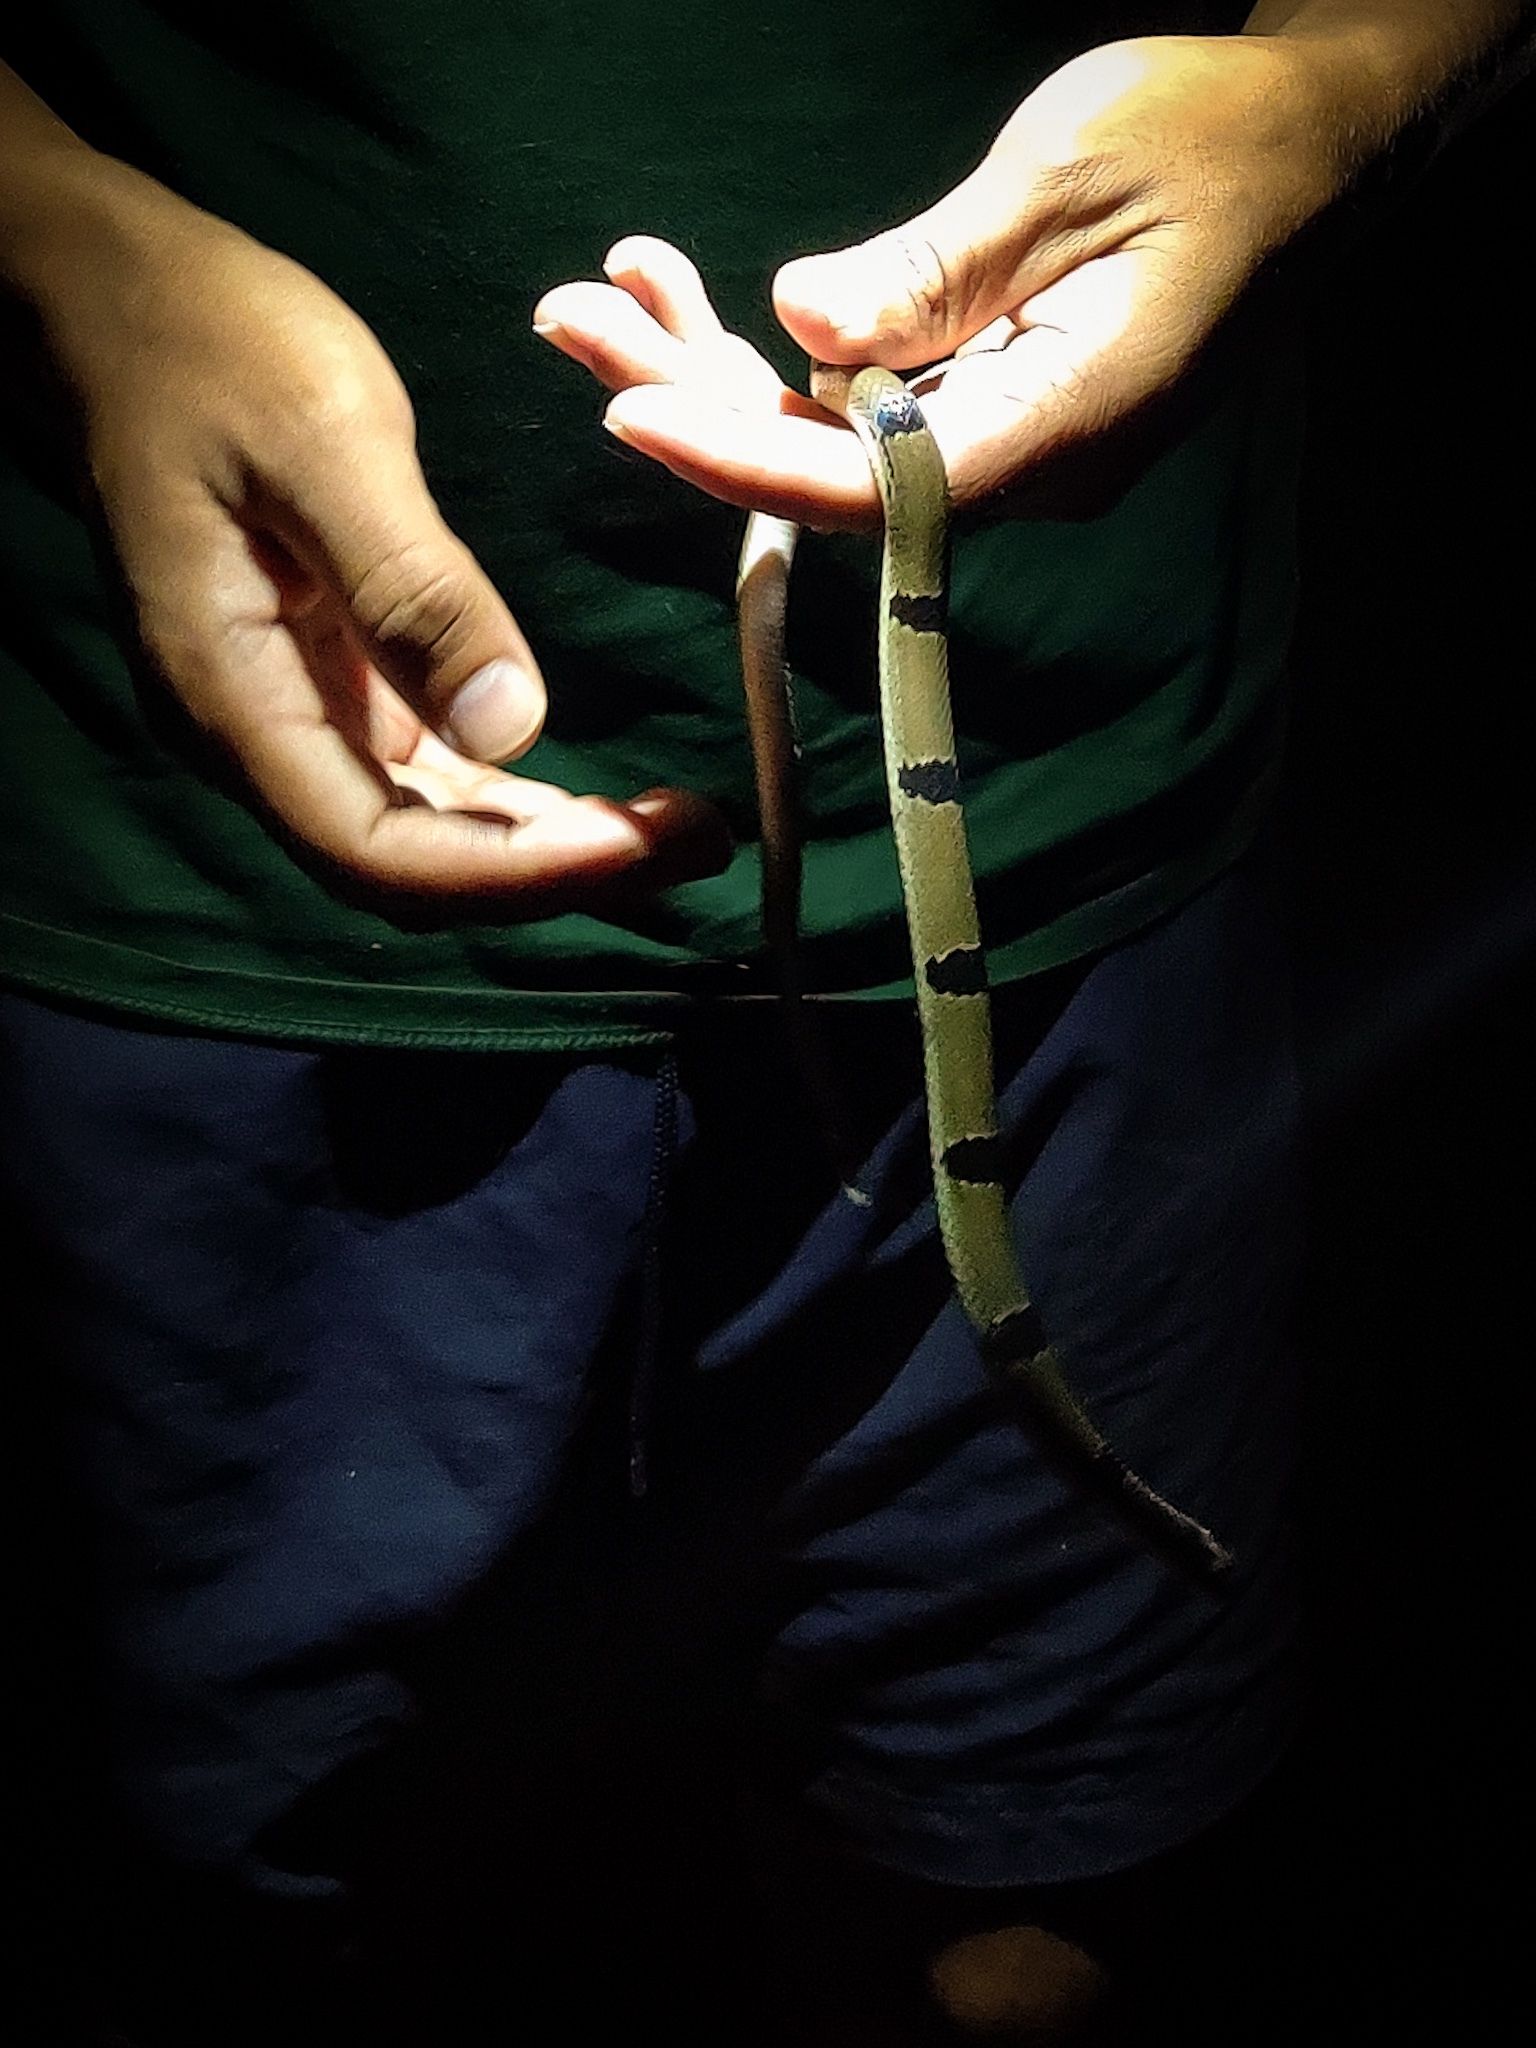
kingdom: Animalia
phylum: Chordata
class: Squamata
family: Colubridae
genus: Oligodon
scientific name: Oligodon arnensis
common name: Banded kukri
